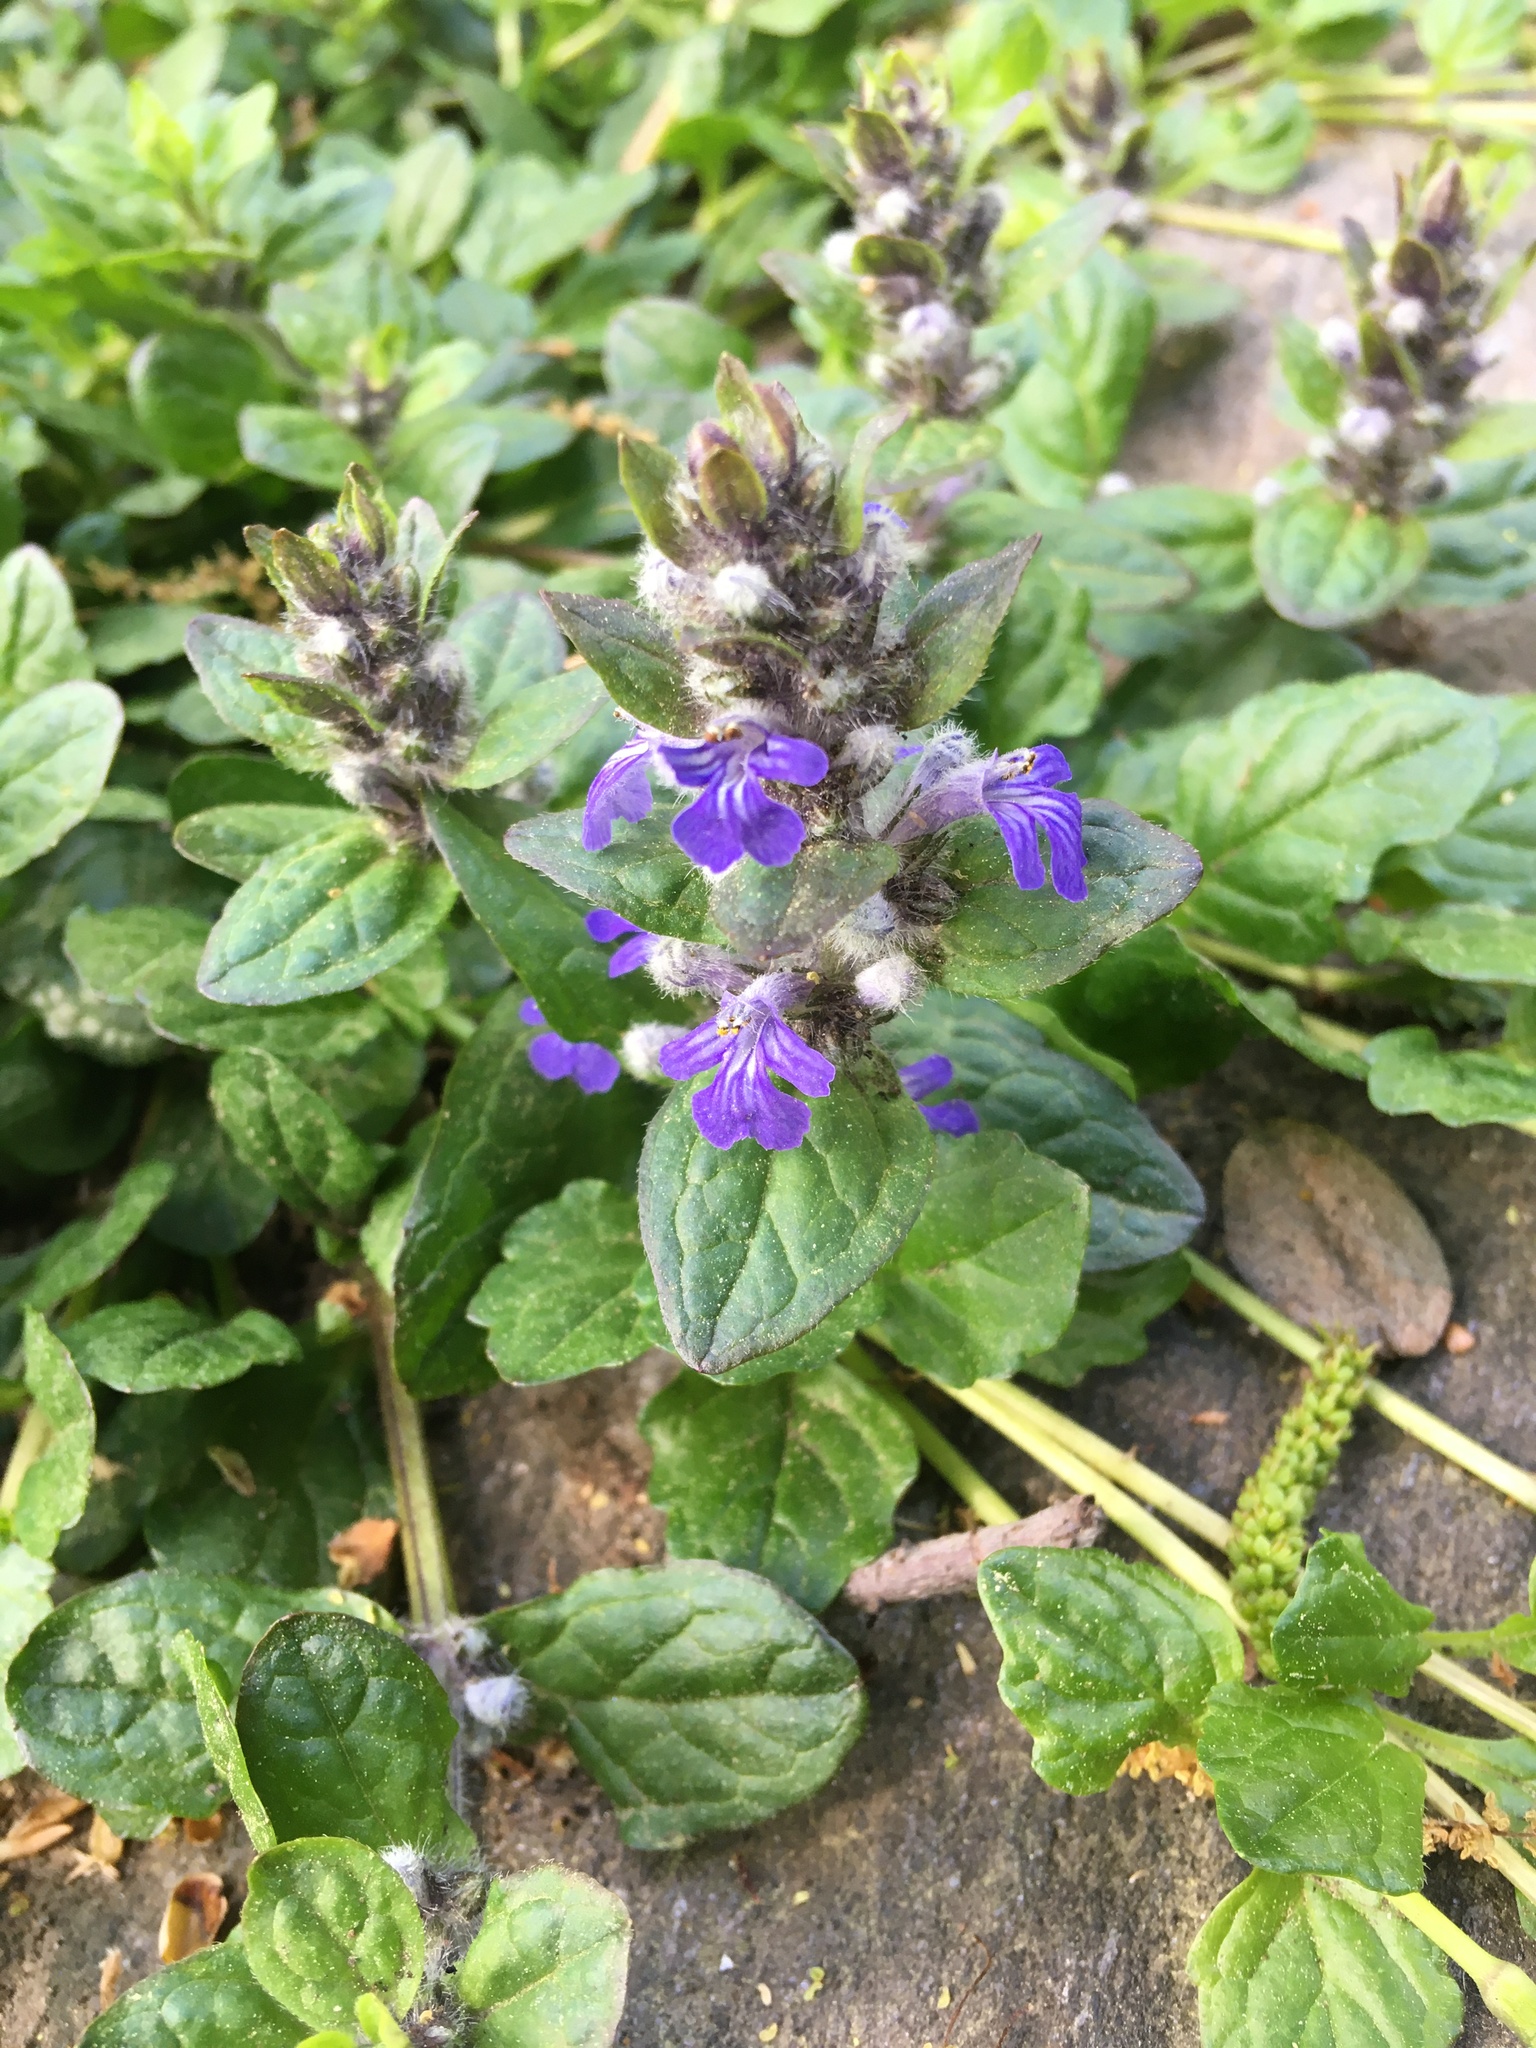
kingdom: Plantae
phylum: Tracheophyta
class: Magnoliopsida
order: Lamiales
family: Lamiaceae
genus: Ajuga
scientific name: Ajuga reptans
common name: Bugle
